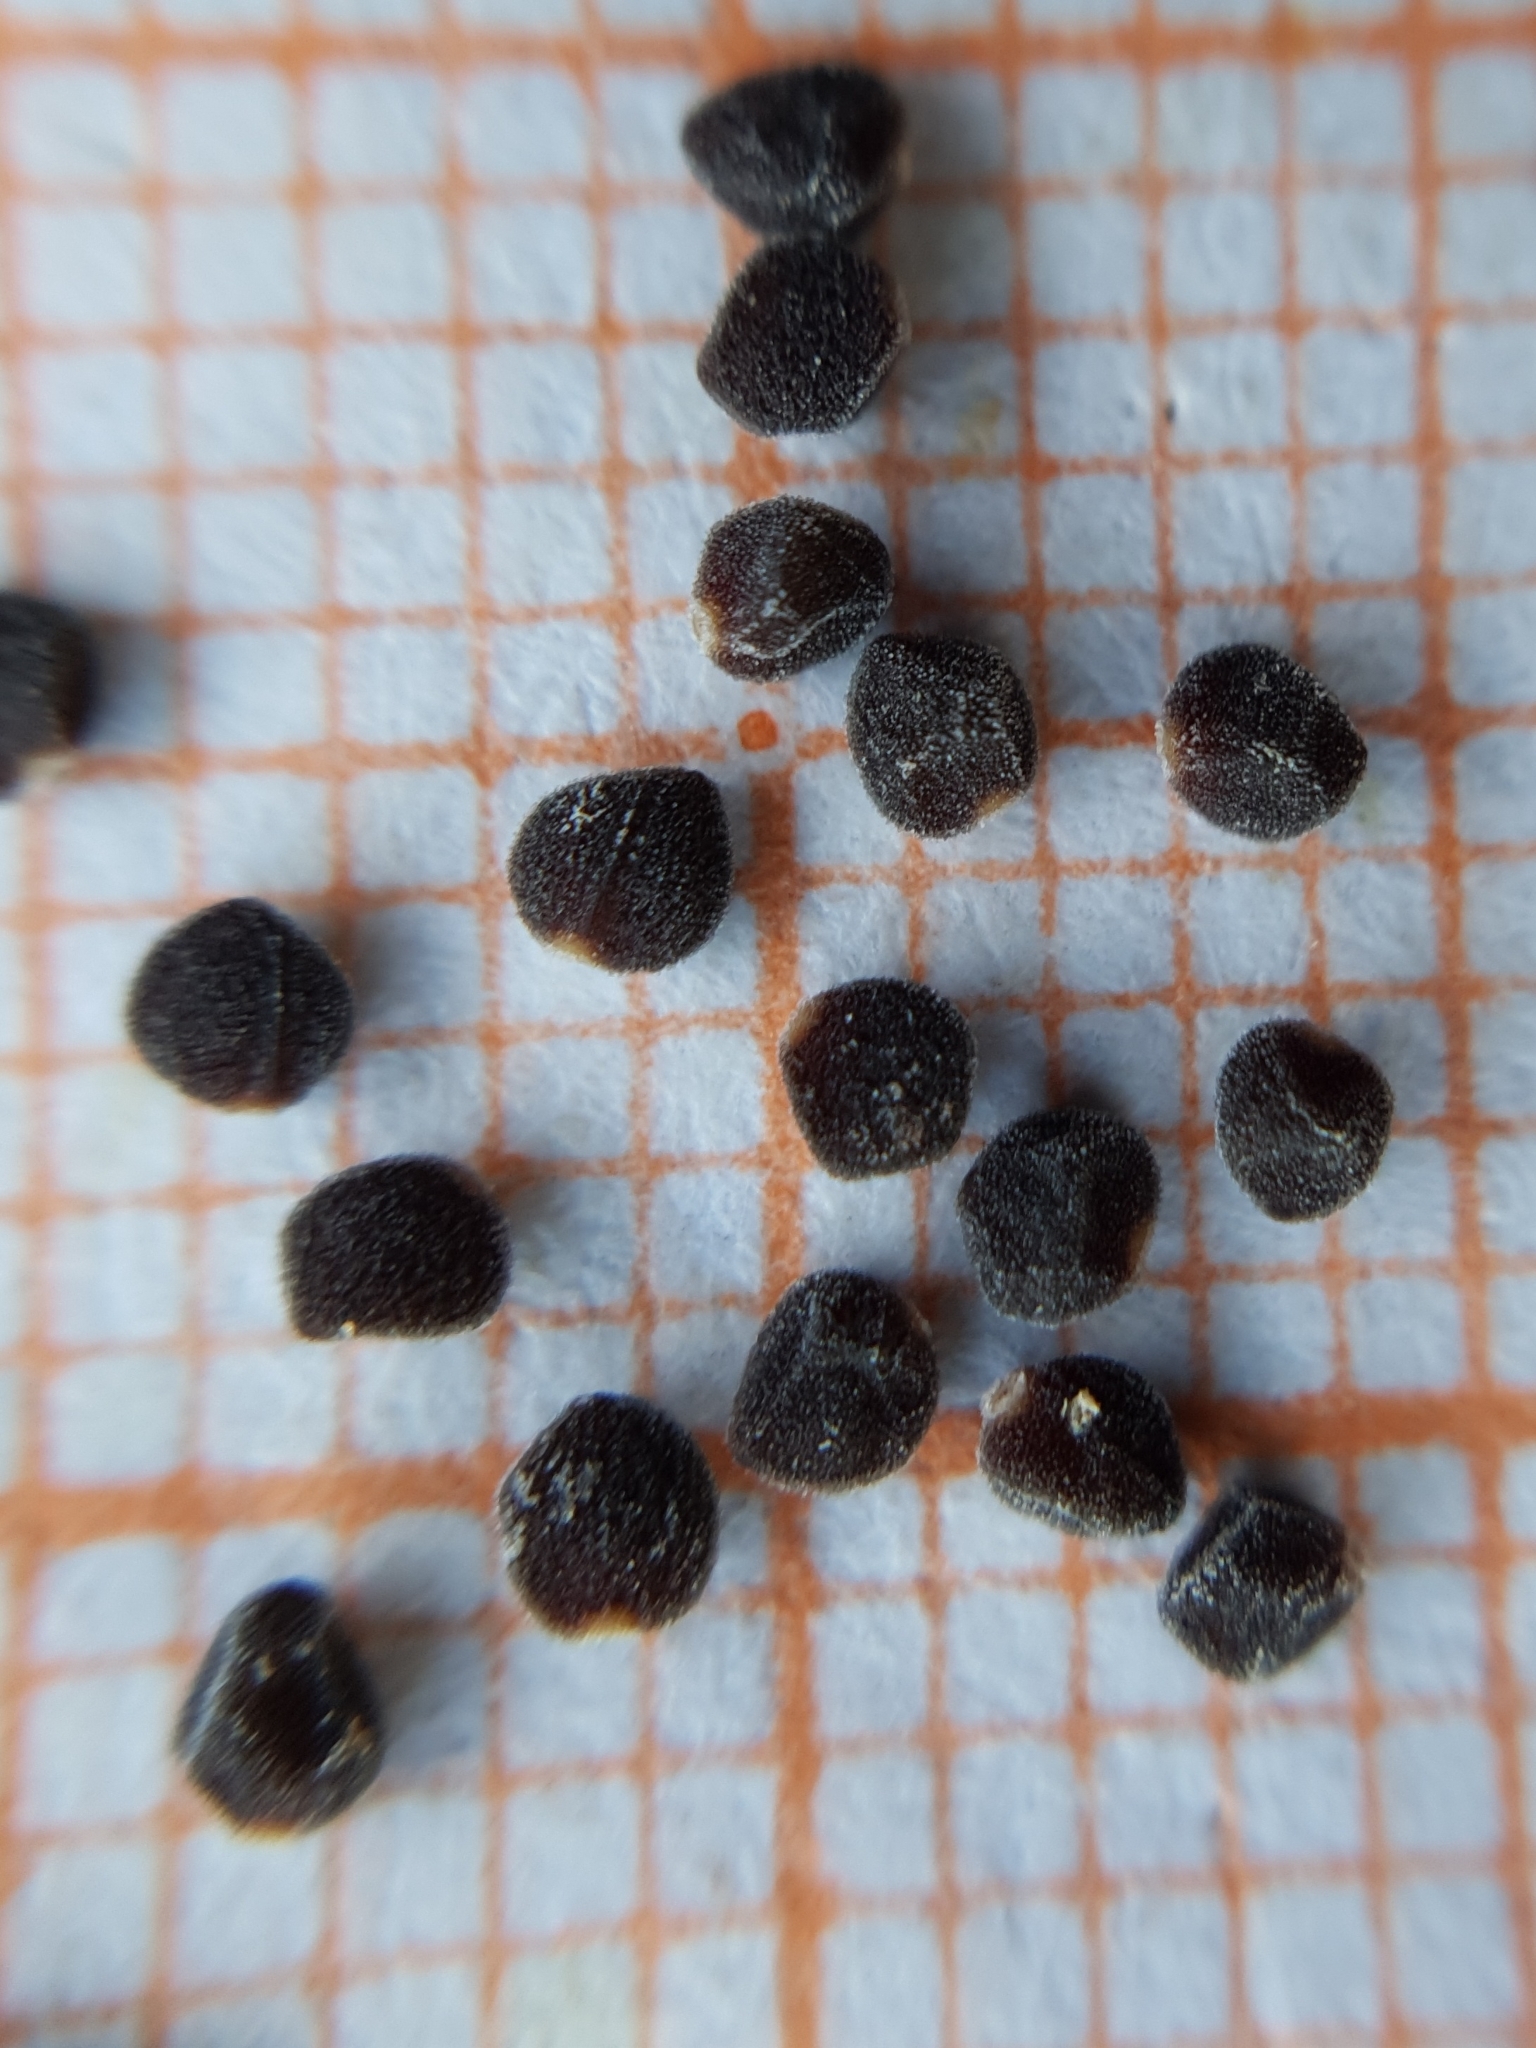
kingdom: Plantae
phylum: Tracheophyta
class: Magnoliopsida
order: Malvales
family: Cistaceae
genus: Helianthemum
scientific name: Helianthemum aegyptiacum
